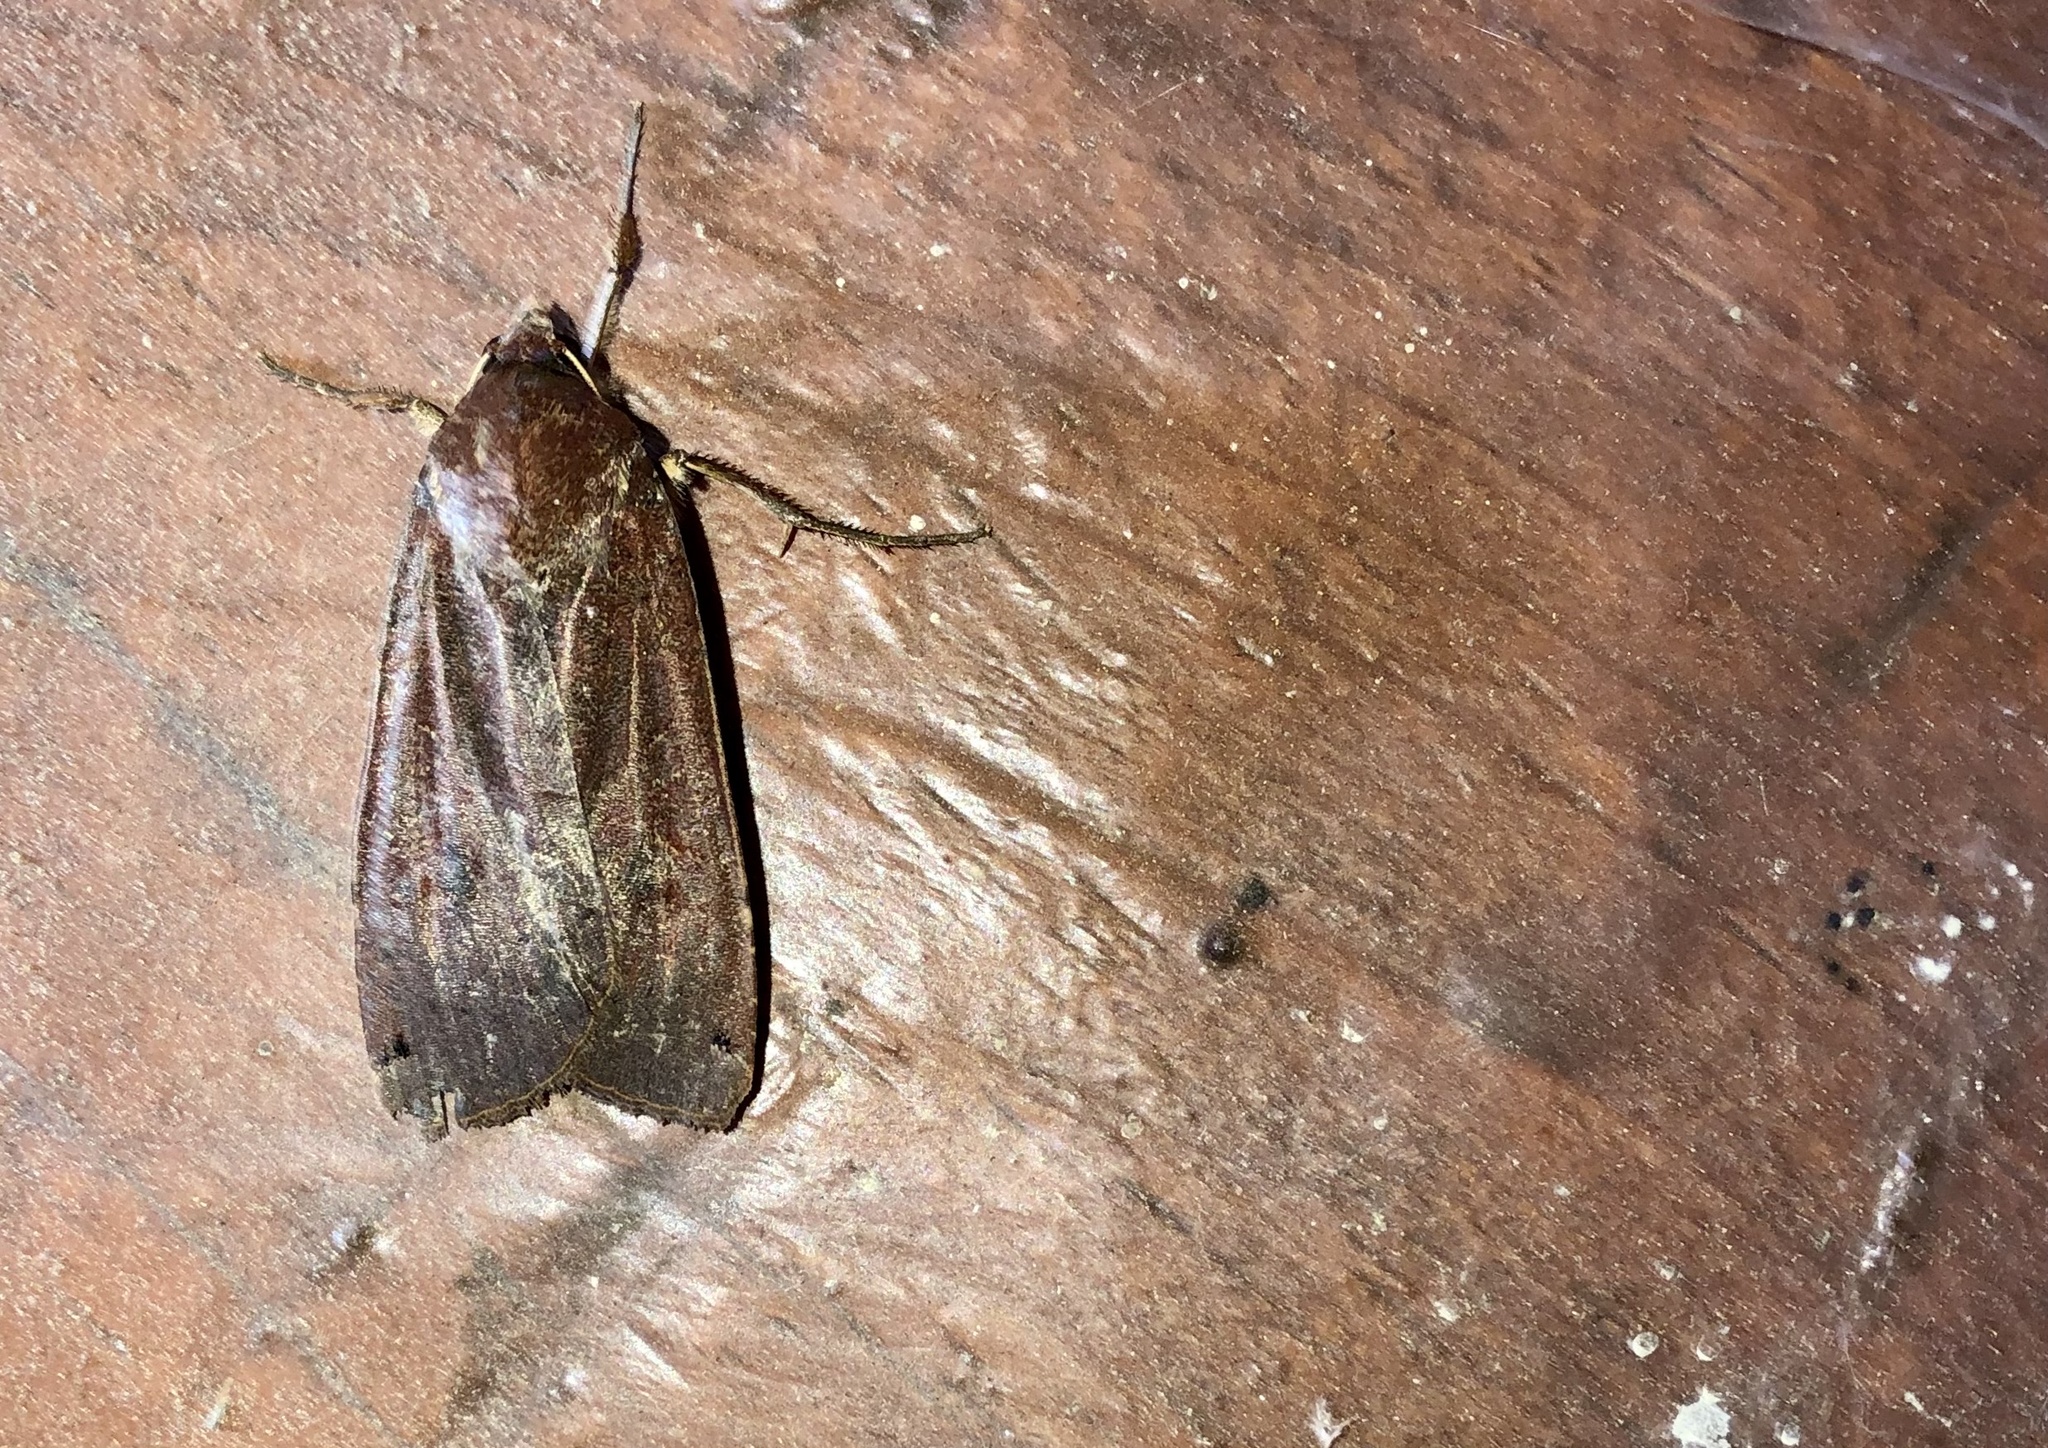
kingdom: Animalia
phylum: Arthropoda
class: Insecta
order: Lepidoptera
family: Noctuidae
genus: Noctua
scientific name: Noctua pronuba
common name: Large yellow underwing
